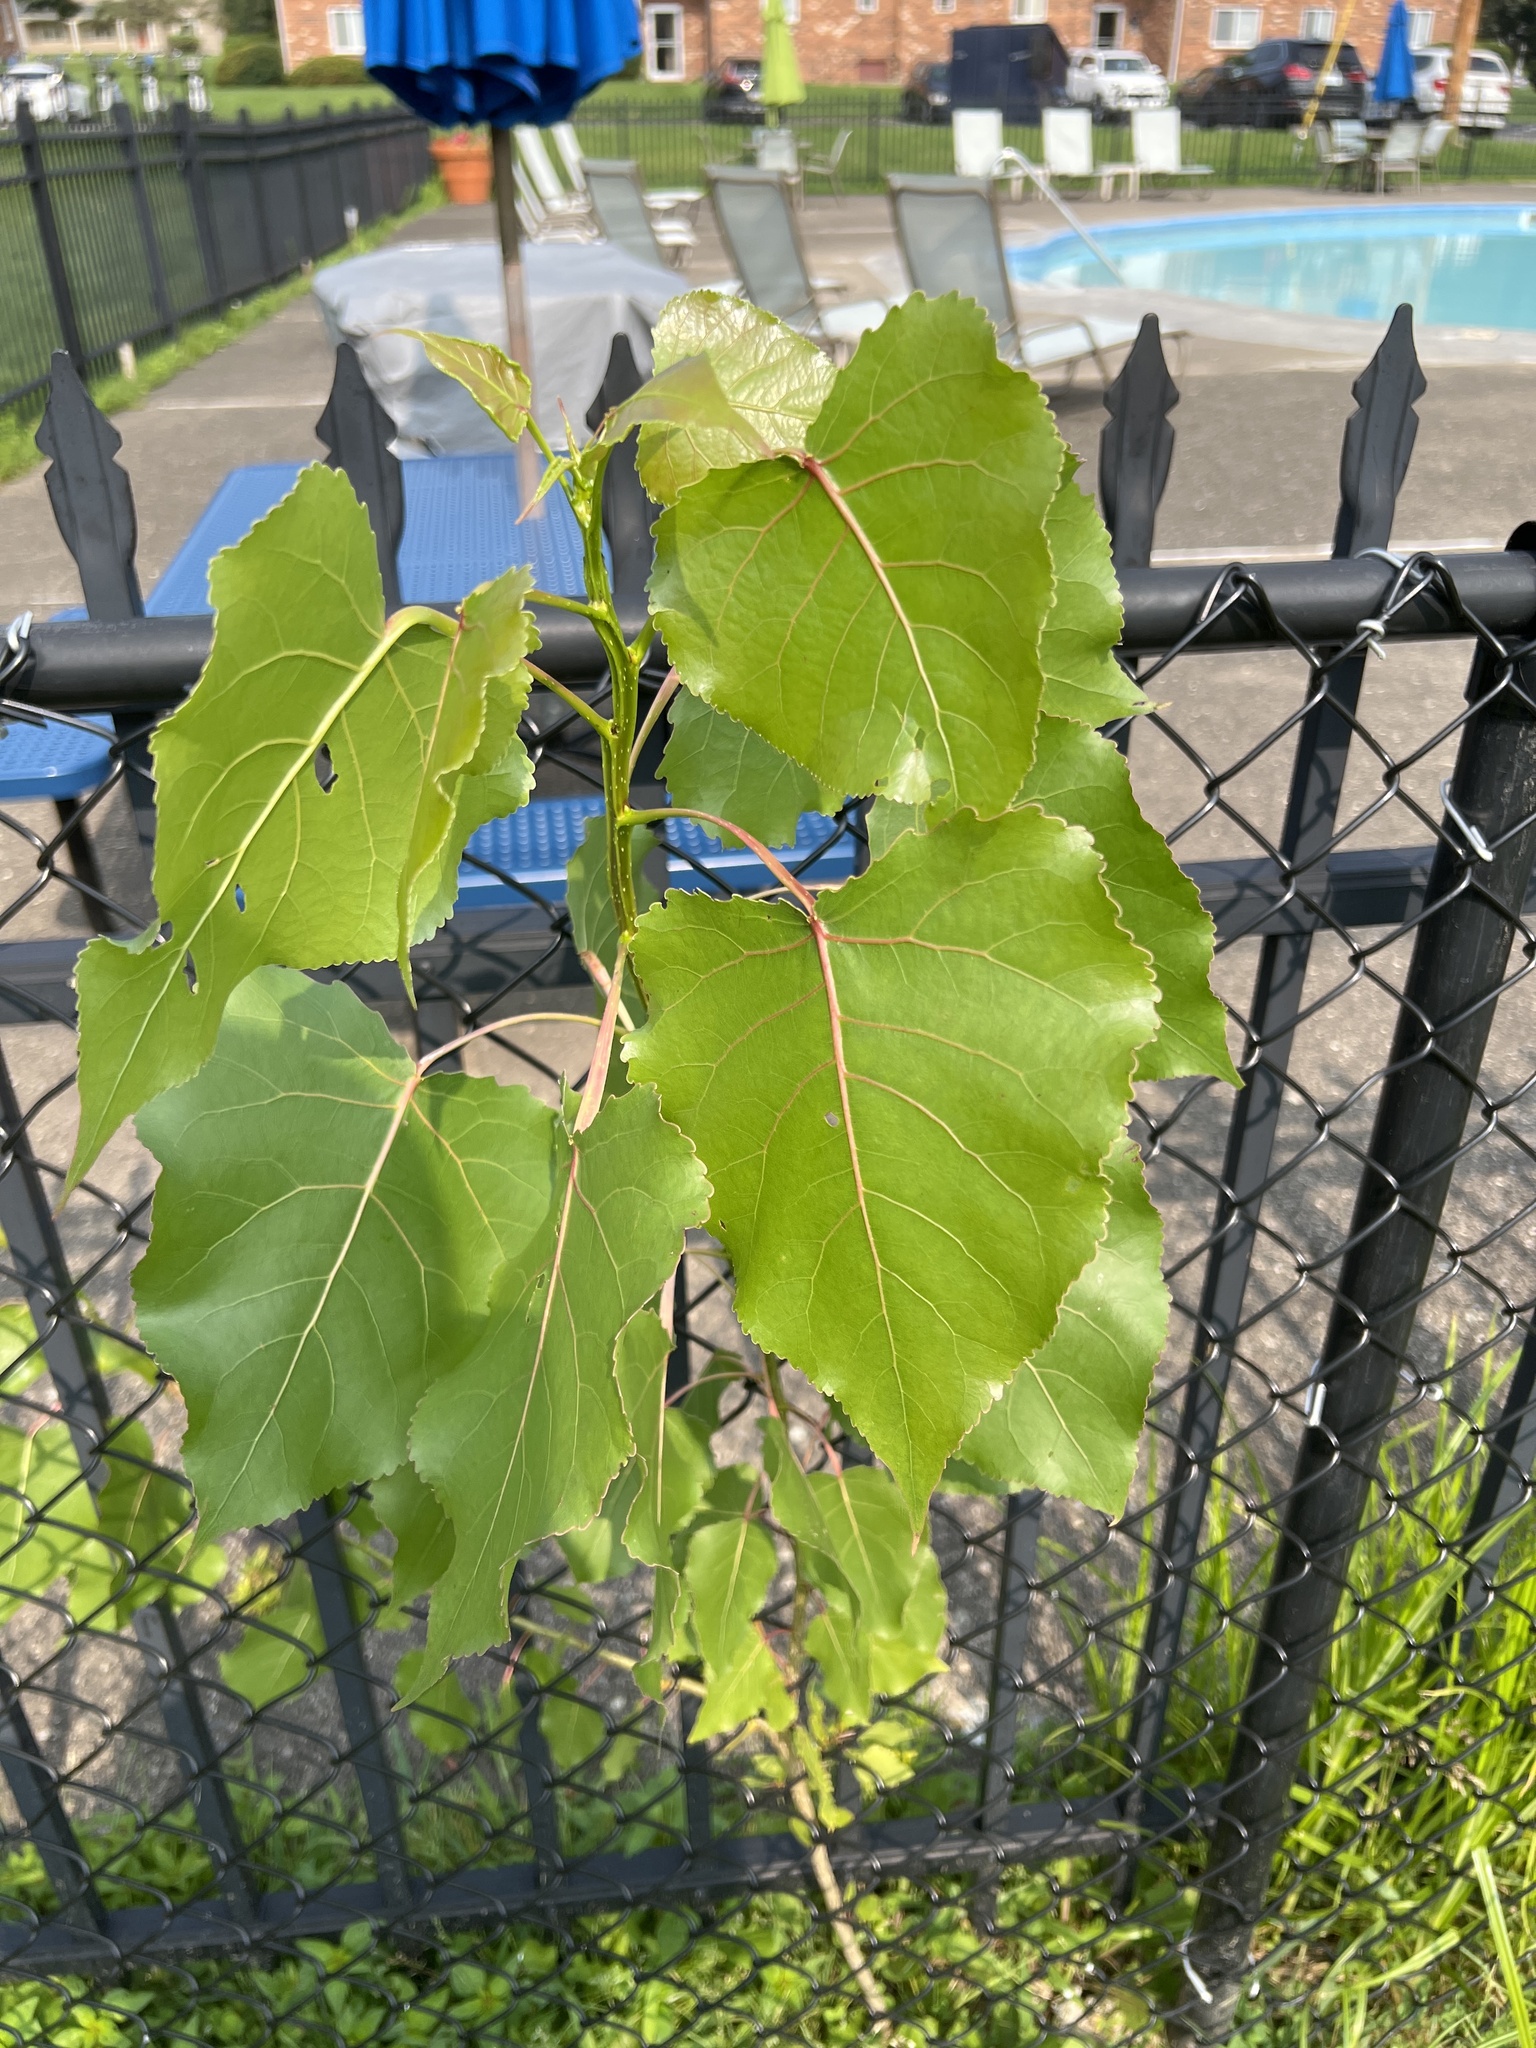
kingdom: Plantae
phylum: Tracheophyta
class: Magnoliopsida
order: Malpighiales
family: Salicaceae
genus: Populus
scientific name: Populus deltoides
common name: Eastern cottonwood
